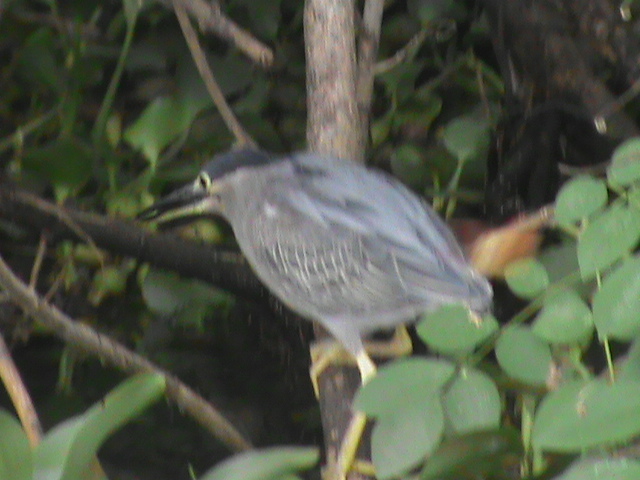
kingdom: Animalia
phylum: Chordata
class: Aves
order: Pelecaniformes
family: Ardeidae
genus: Butorides
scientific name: Butorides striata
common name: Striated heron
